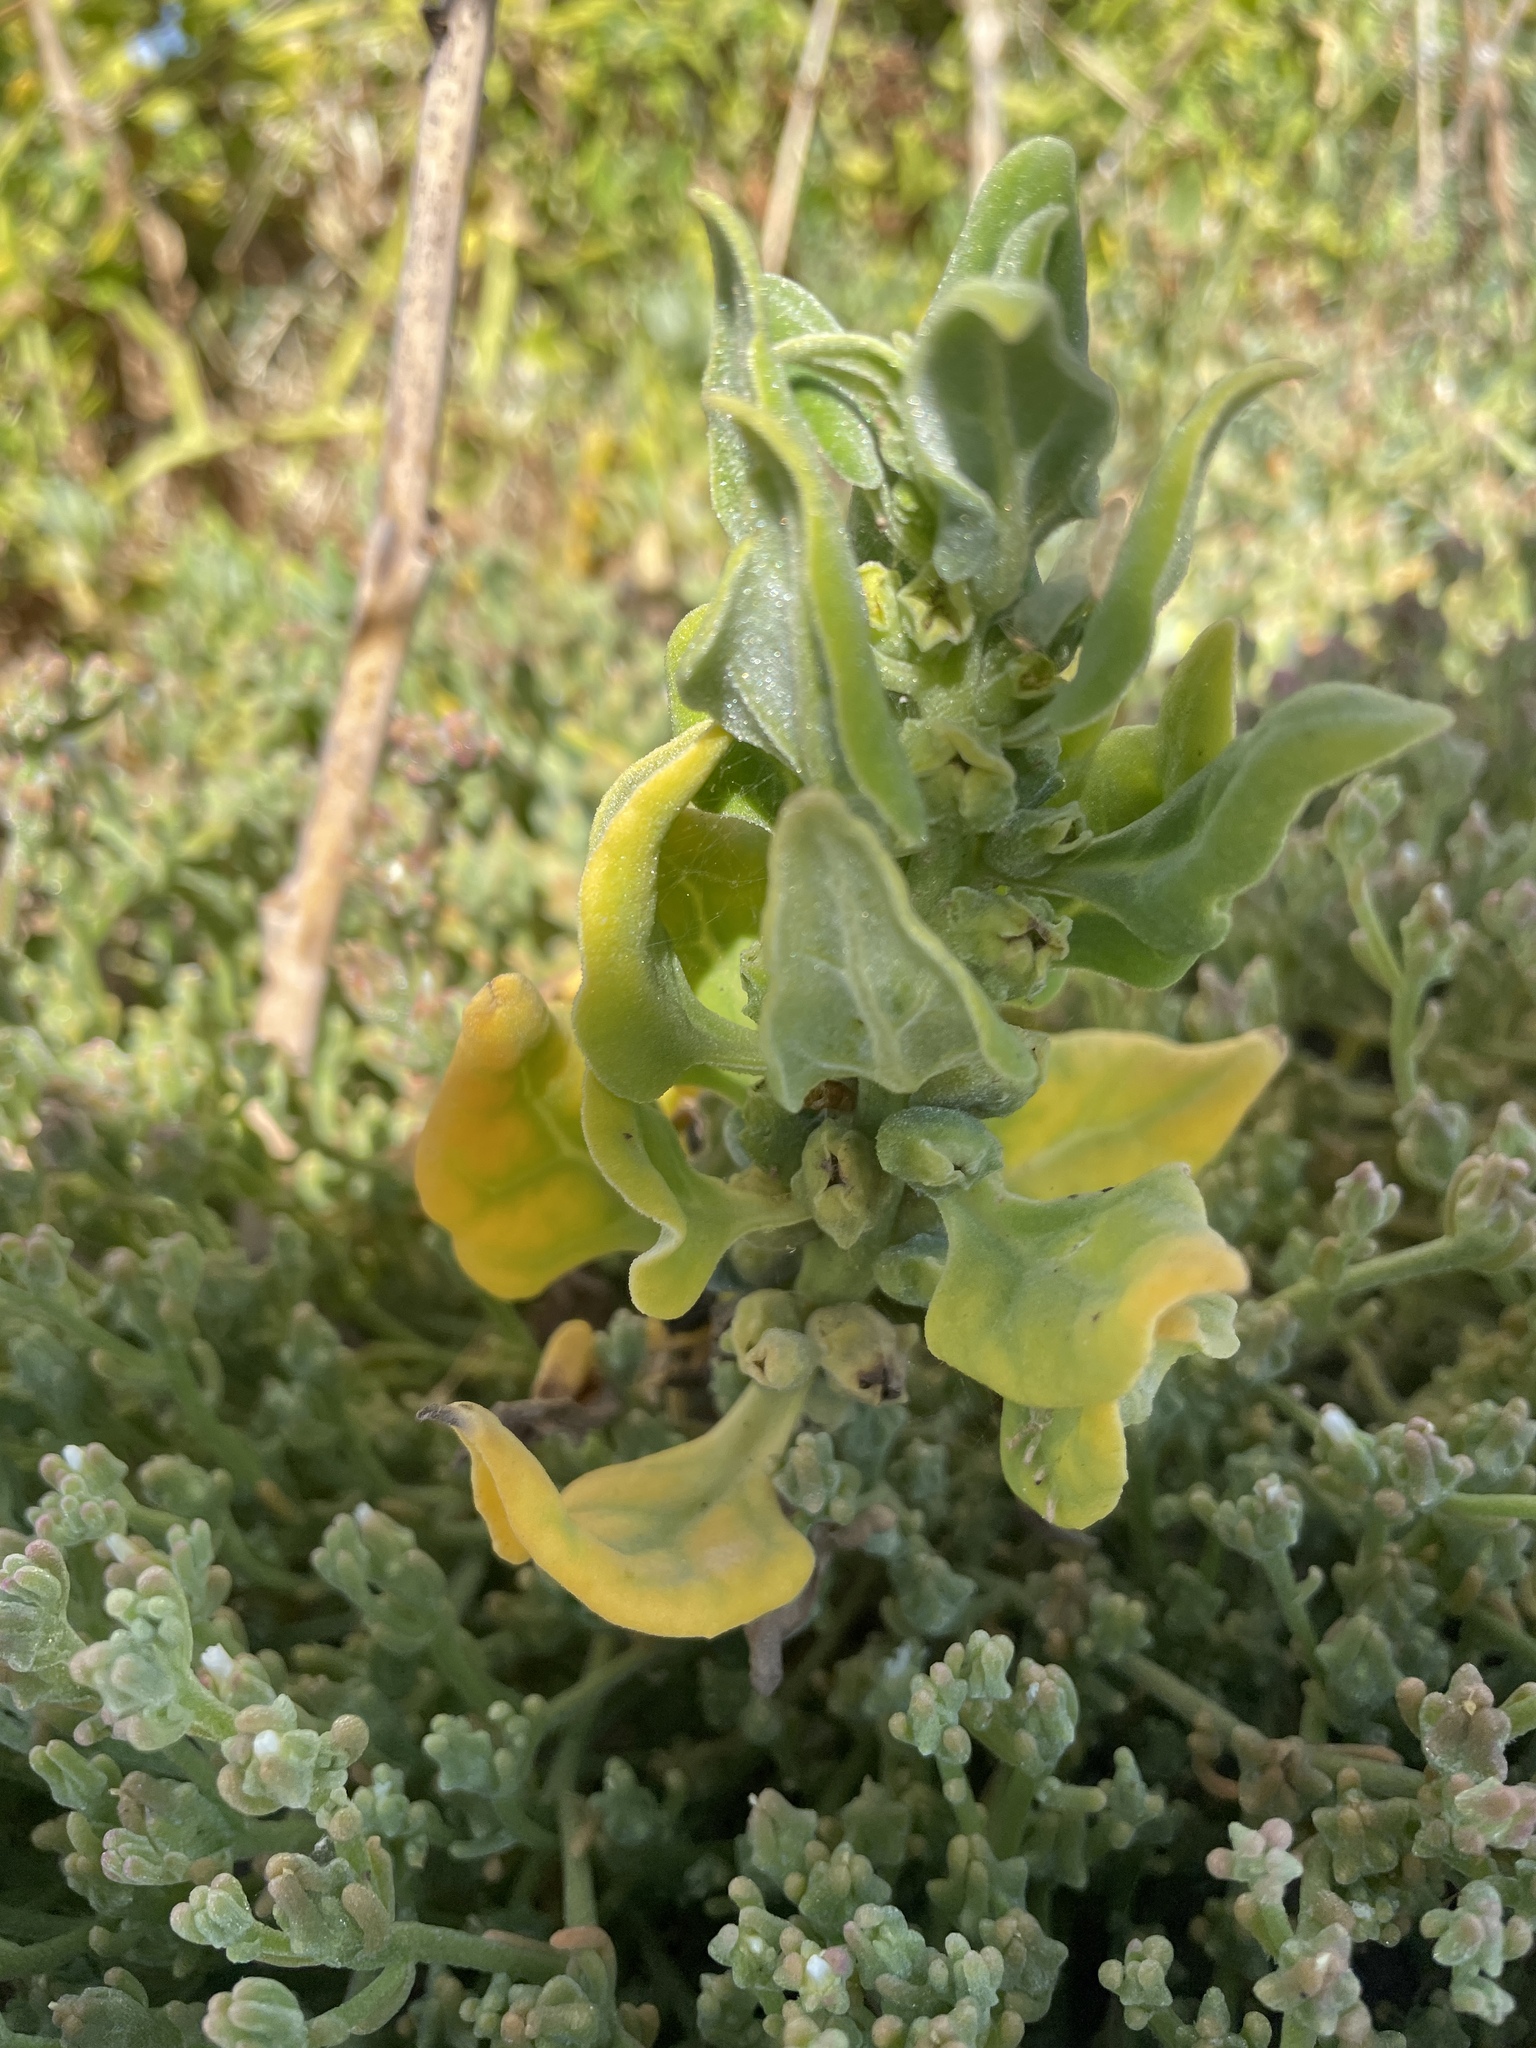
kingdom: Plantae
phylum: Tracheophyta
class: Magnoliopsida
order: Caryophyllales
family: Aizoaceae
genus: Tetragonia
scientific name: Tetragonia tetragonoides
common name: New zealand-spinach
